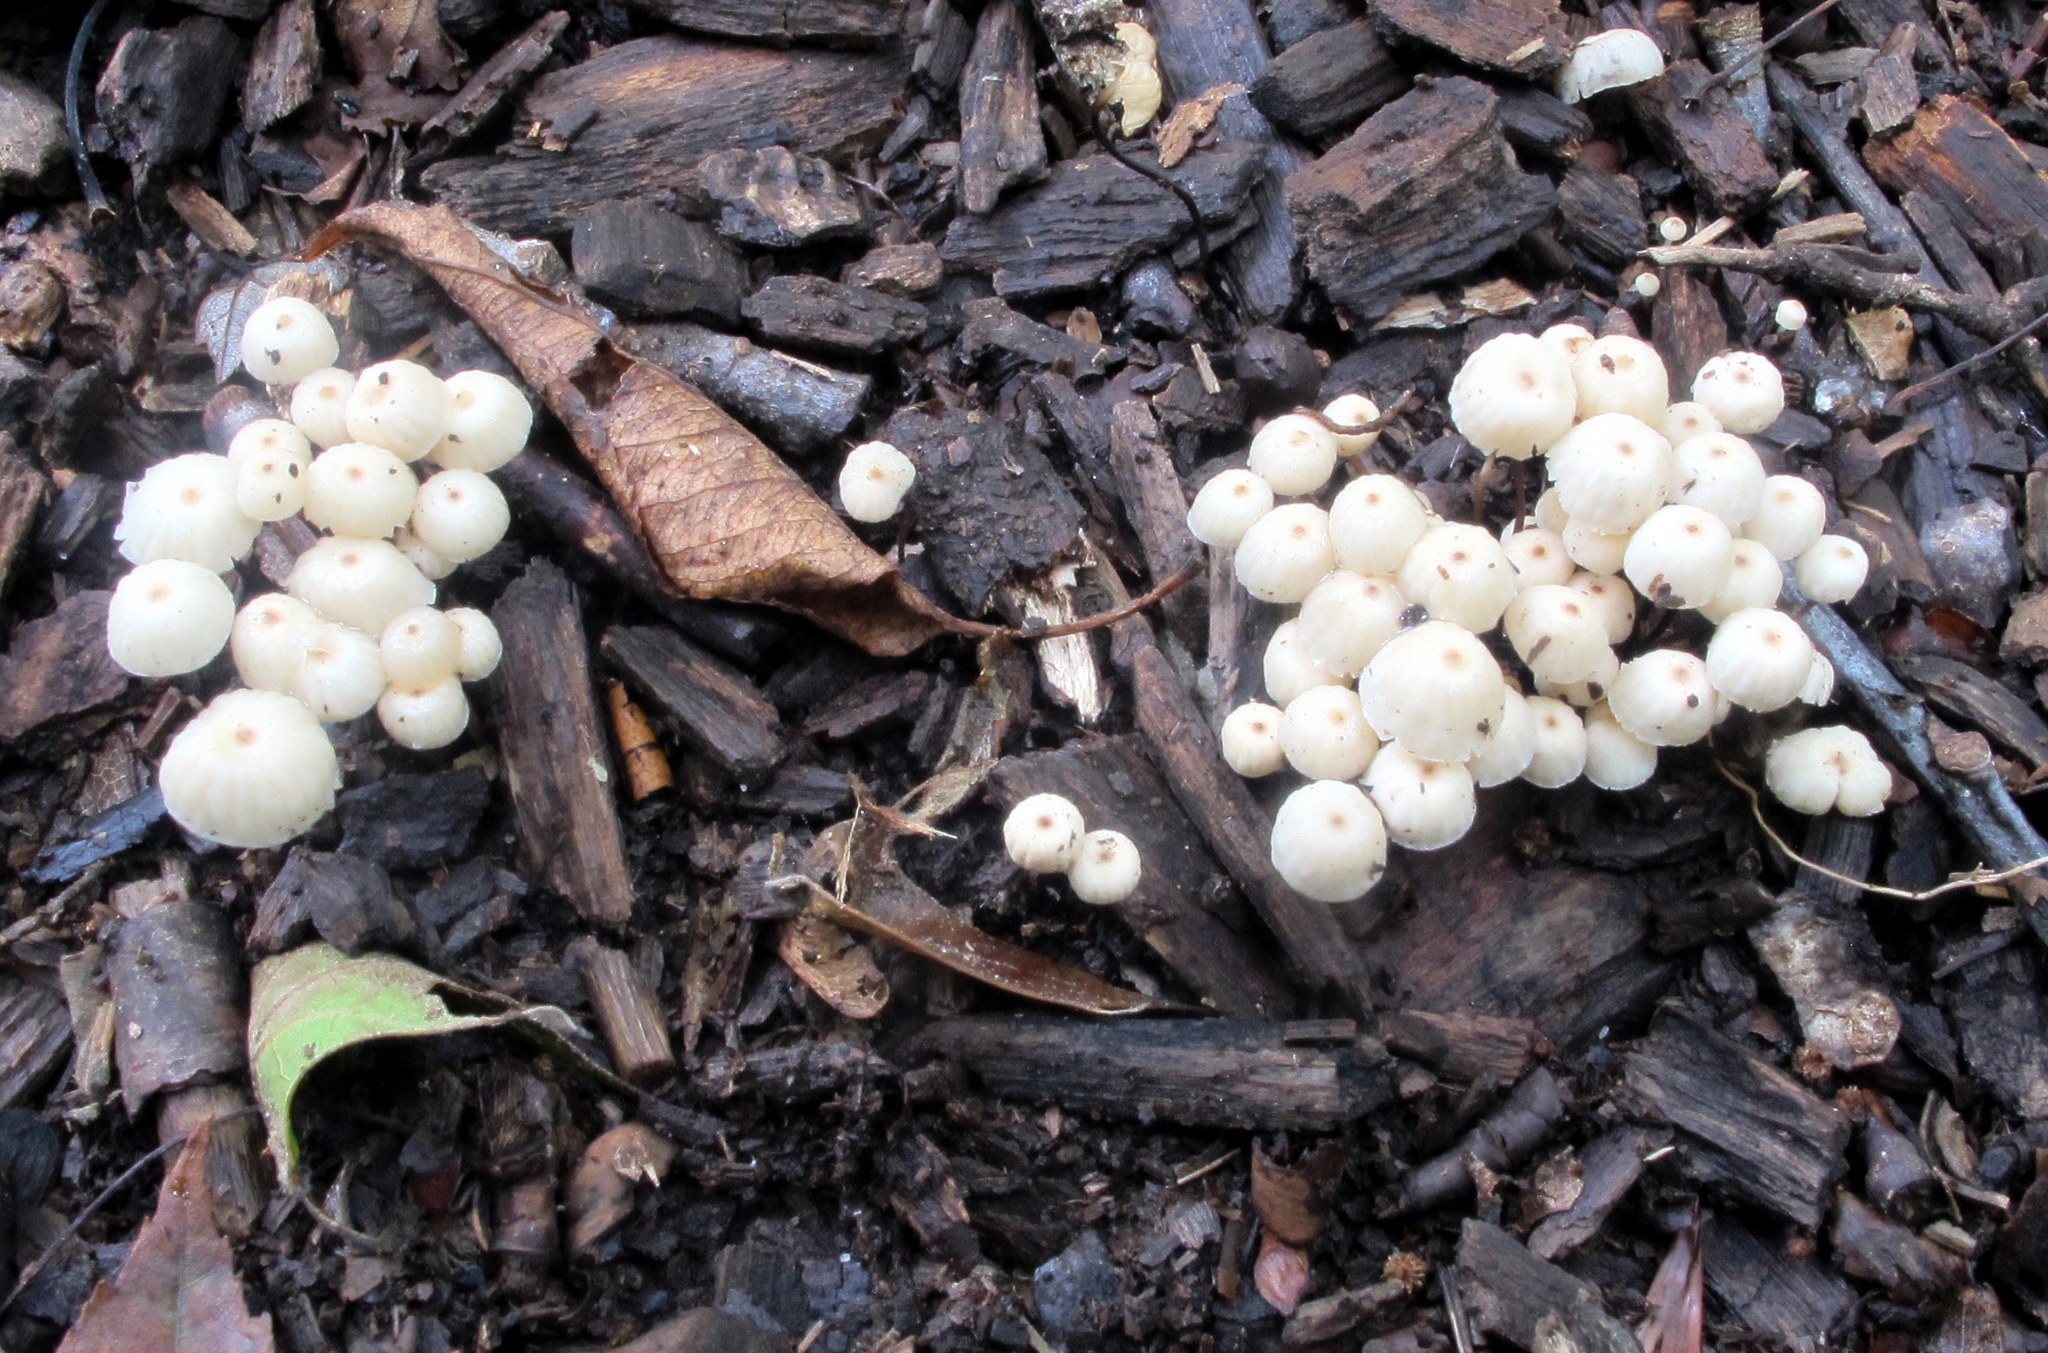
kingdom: Fungi
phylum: Basidiomycota
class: Agaricomycetes
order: Agaricales
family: Marasmiaceae
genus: Marasmius
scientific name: Marasmius rotula
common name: Collared parachute
